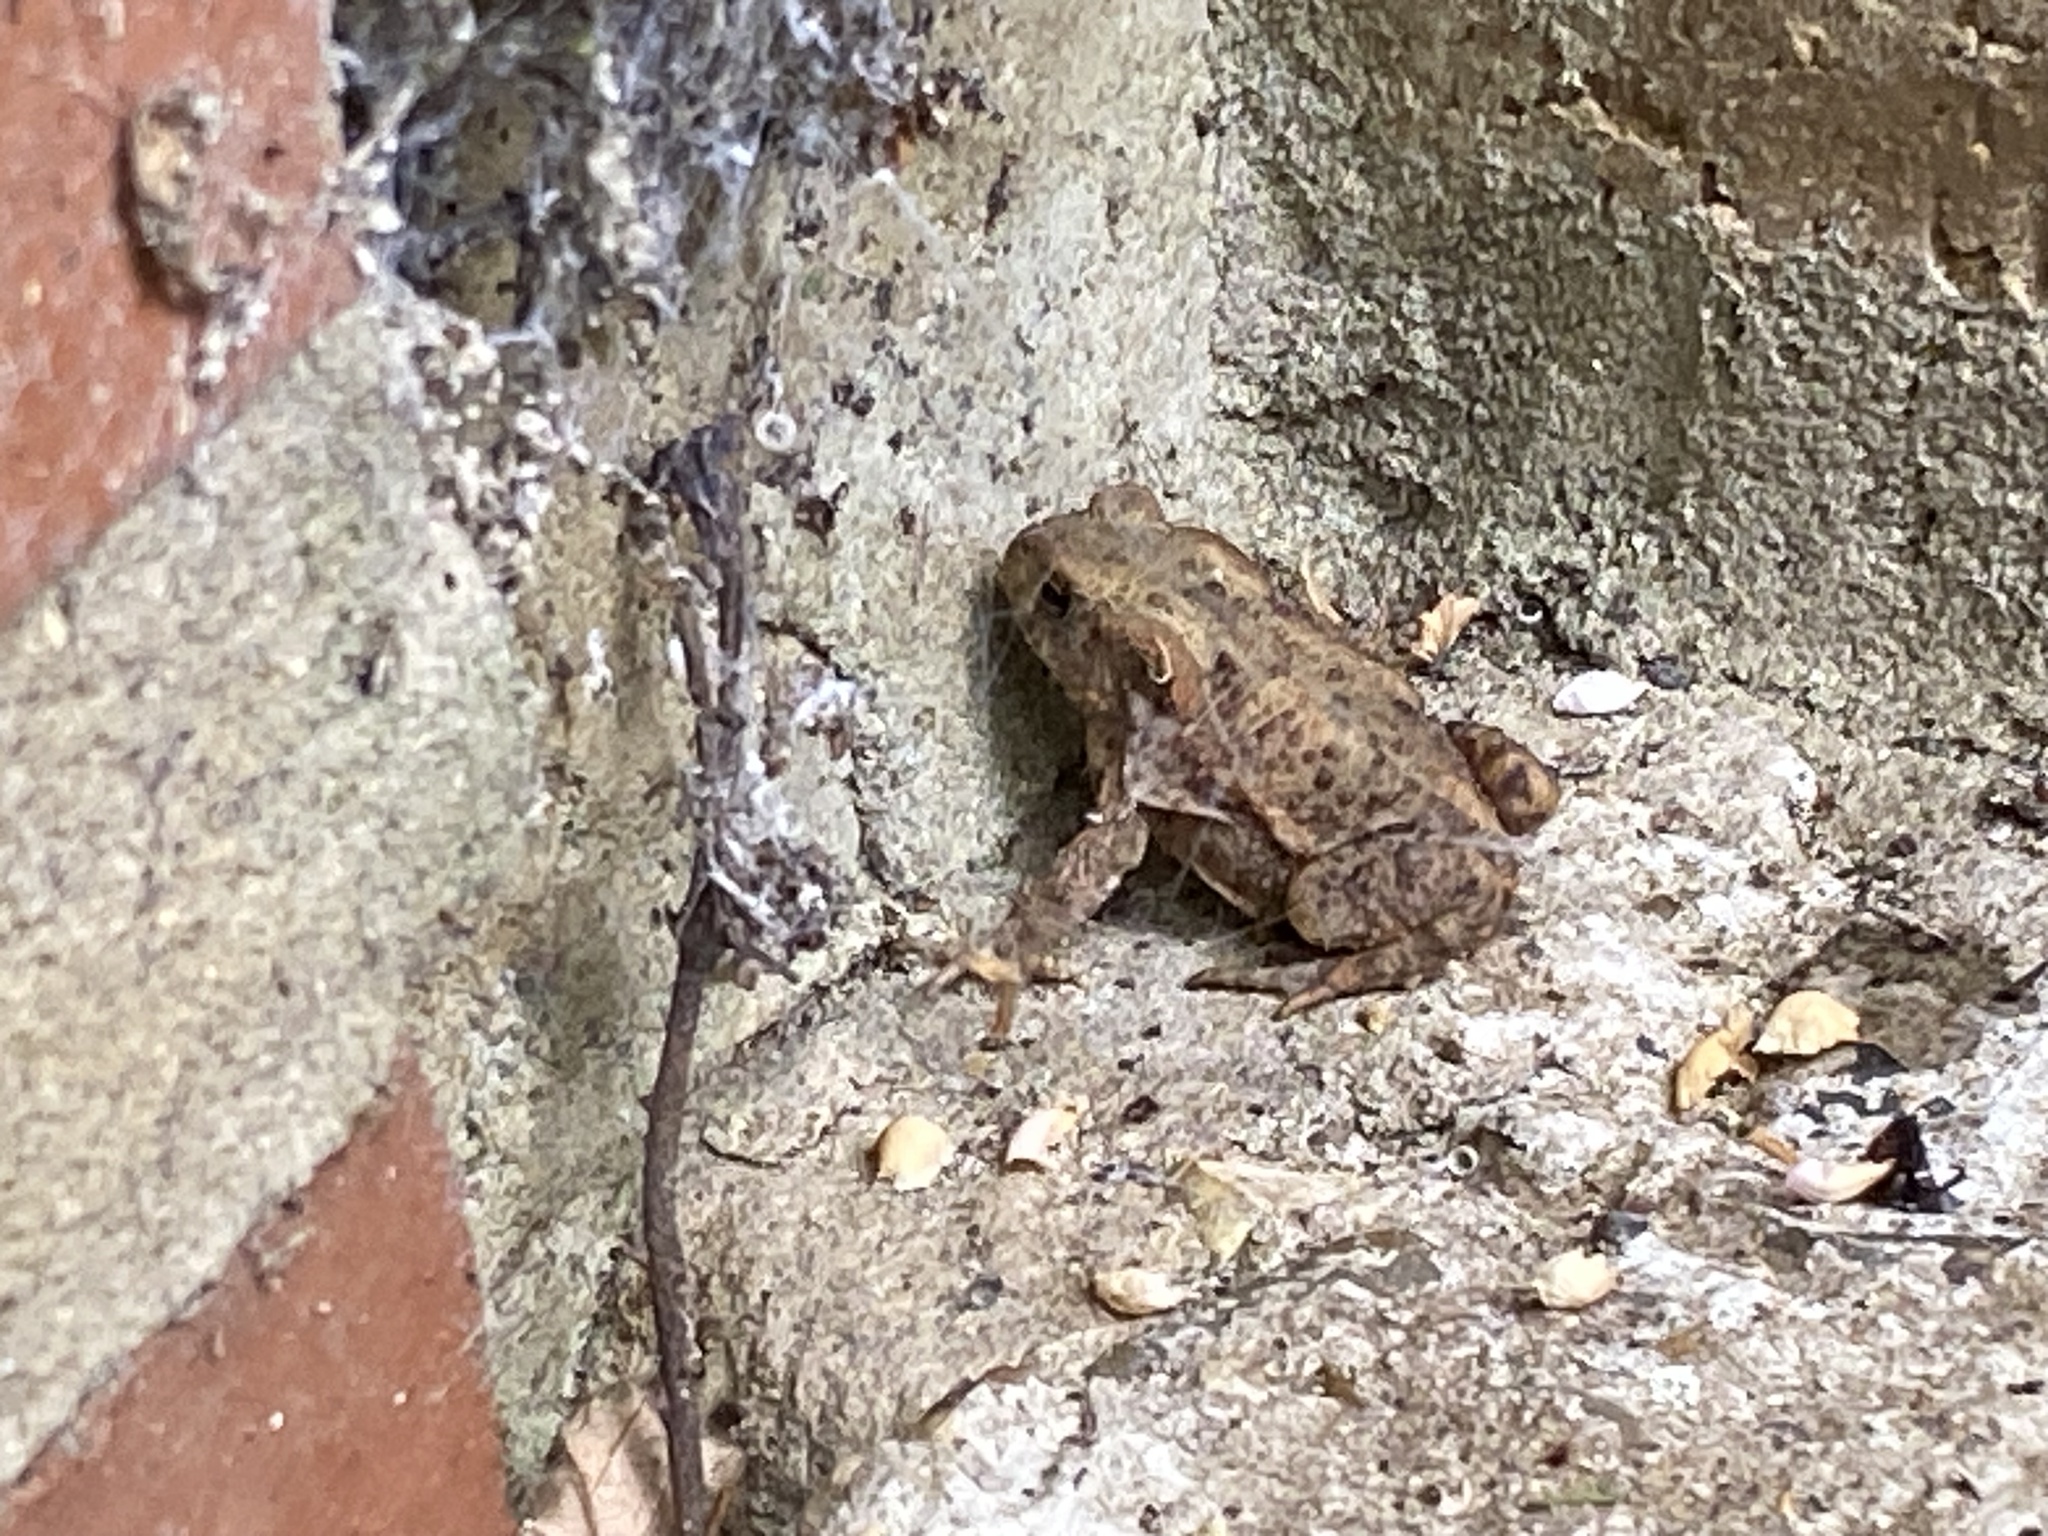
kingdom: Animalia
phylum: Chordata
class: Amphibia
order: Anura
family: Bufonidae
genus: Bufo
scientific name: Bufo bufo
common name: Common toad
